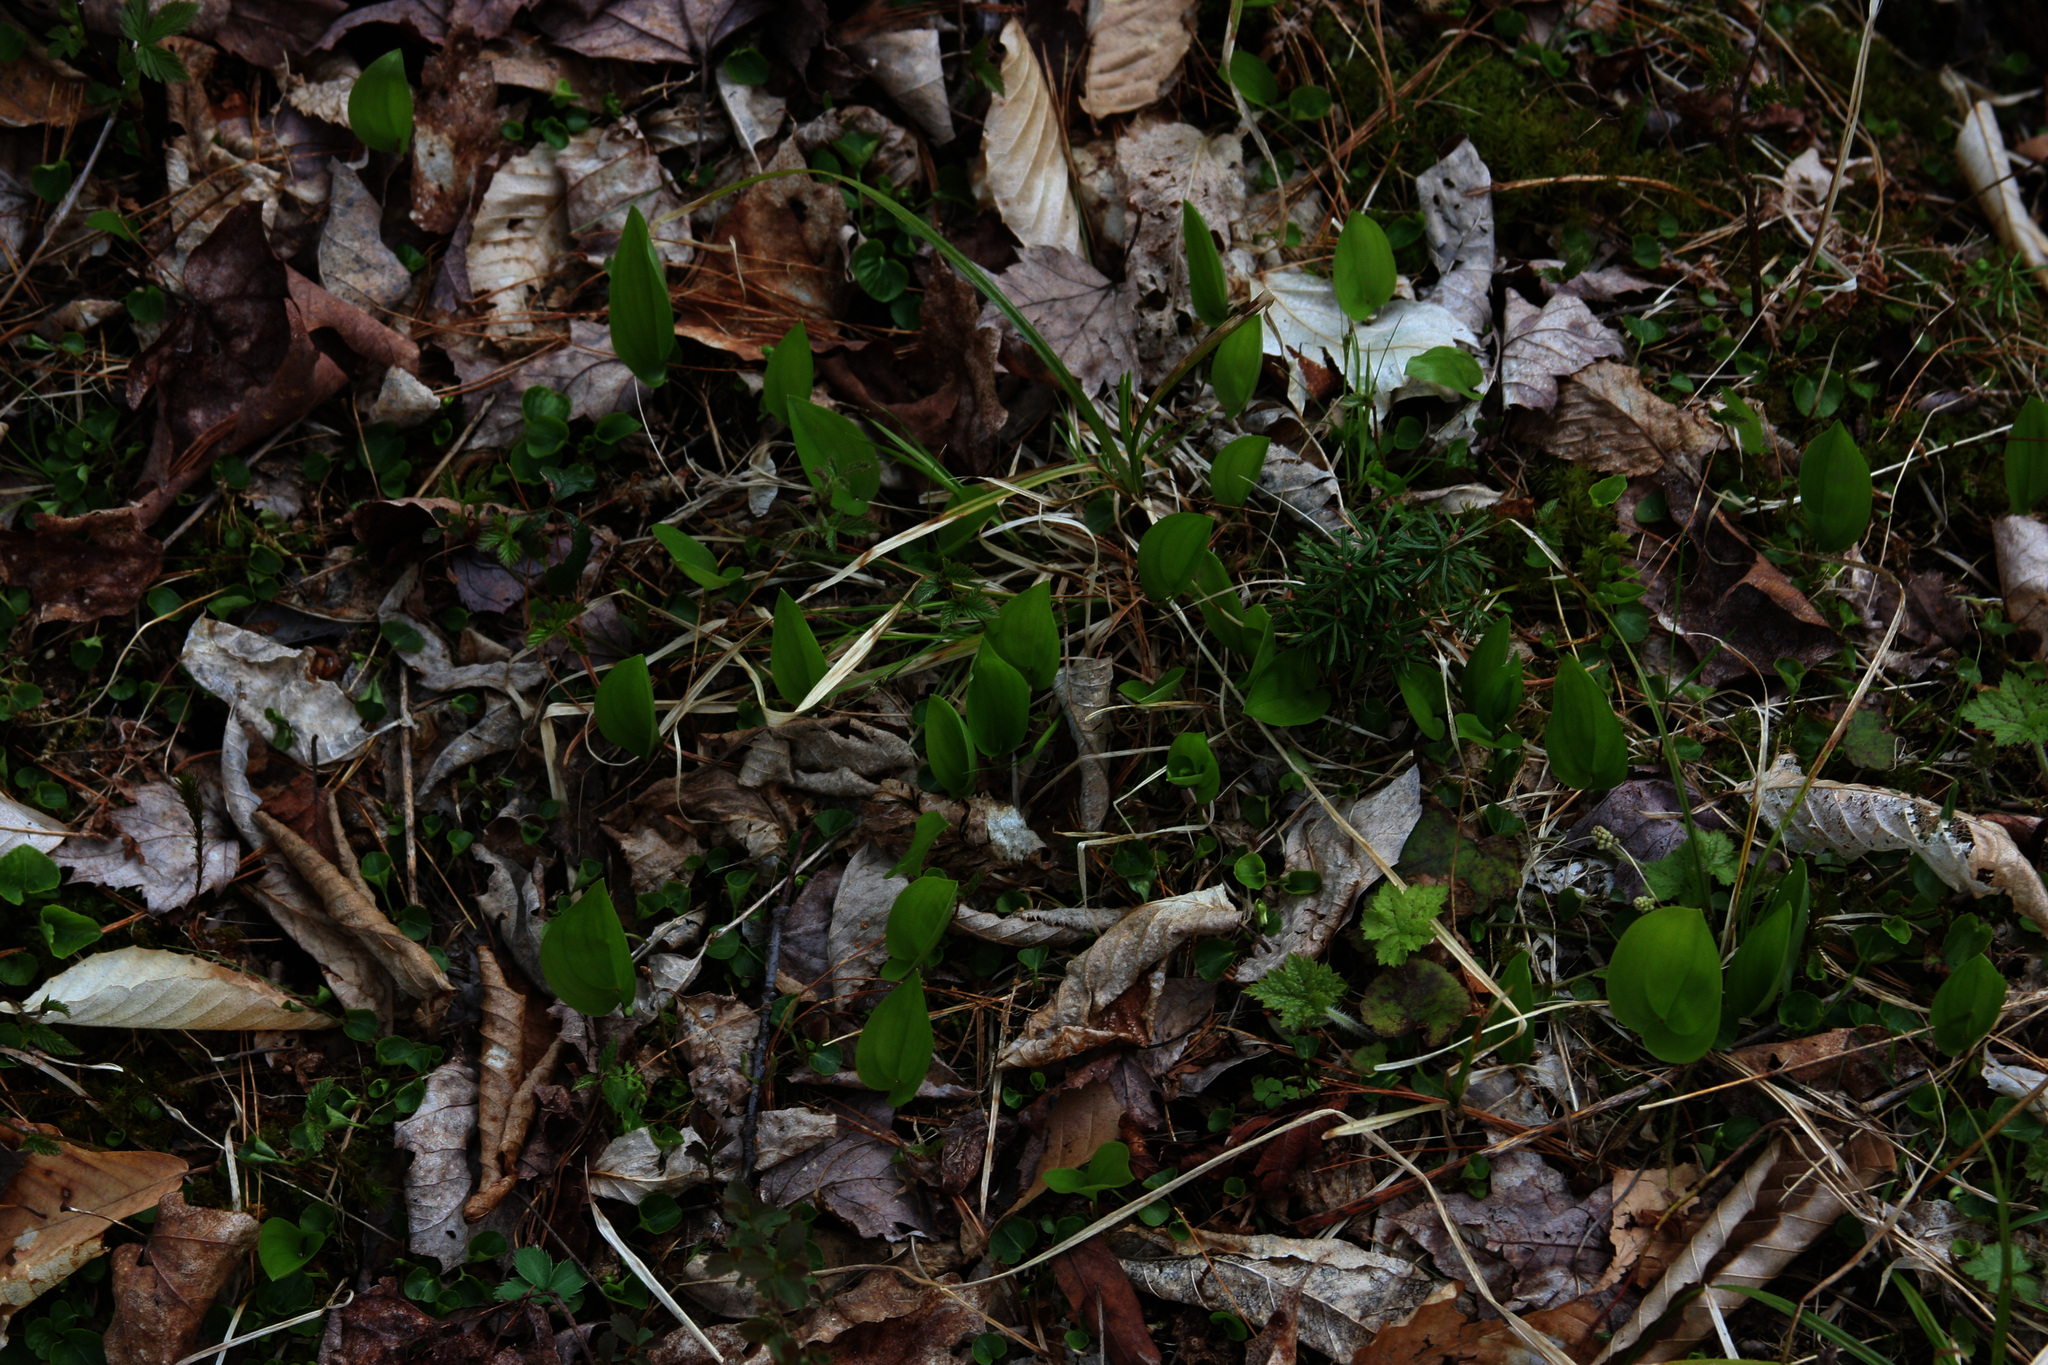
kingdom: Plantae
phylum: Tracheophyta
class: Liliopsida
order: Asparagales
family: Asparagaceae
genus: Maianthemum
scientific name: Maianthemum canadense
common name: False lily-of-the-valley
